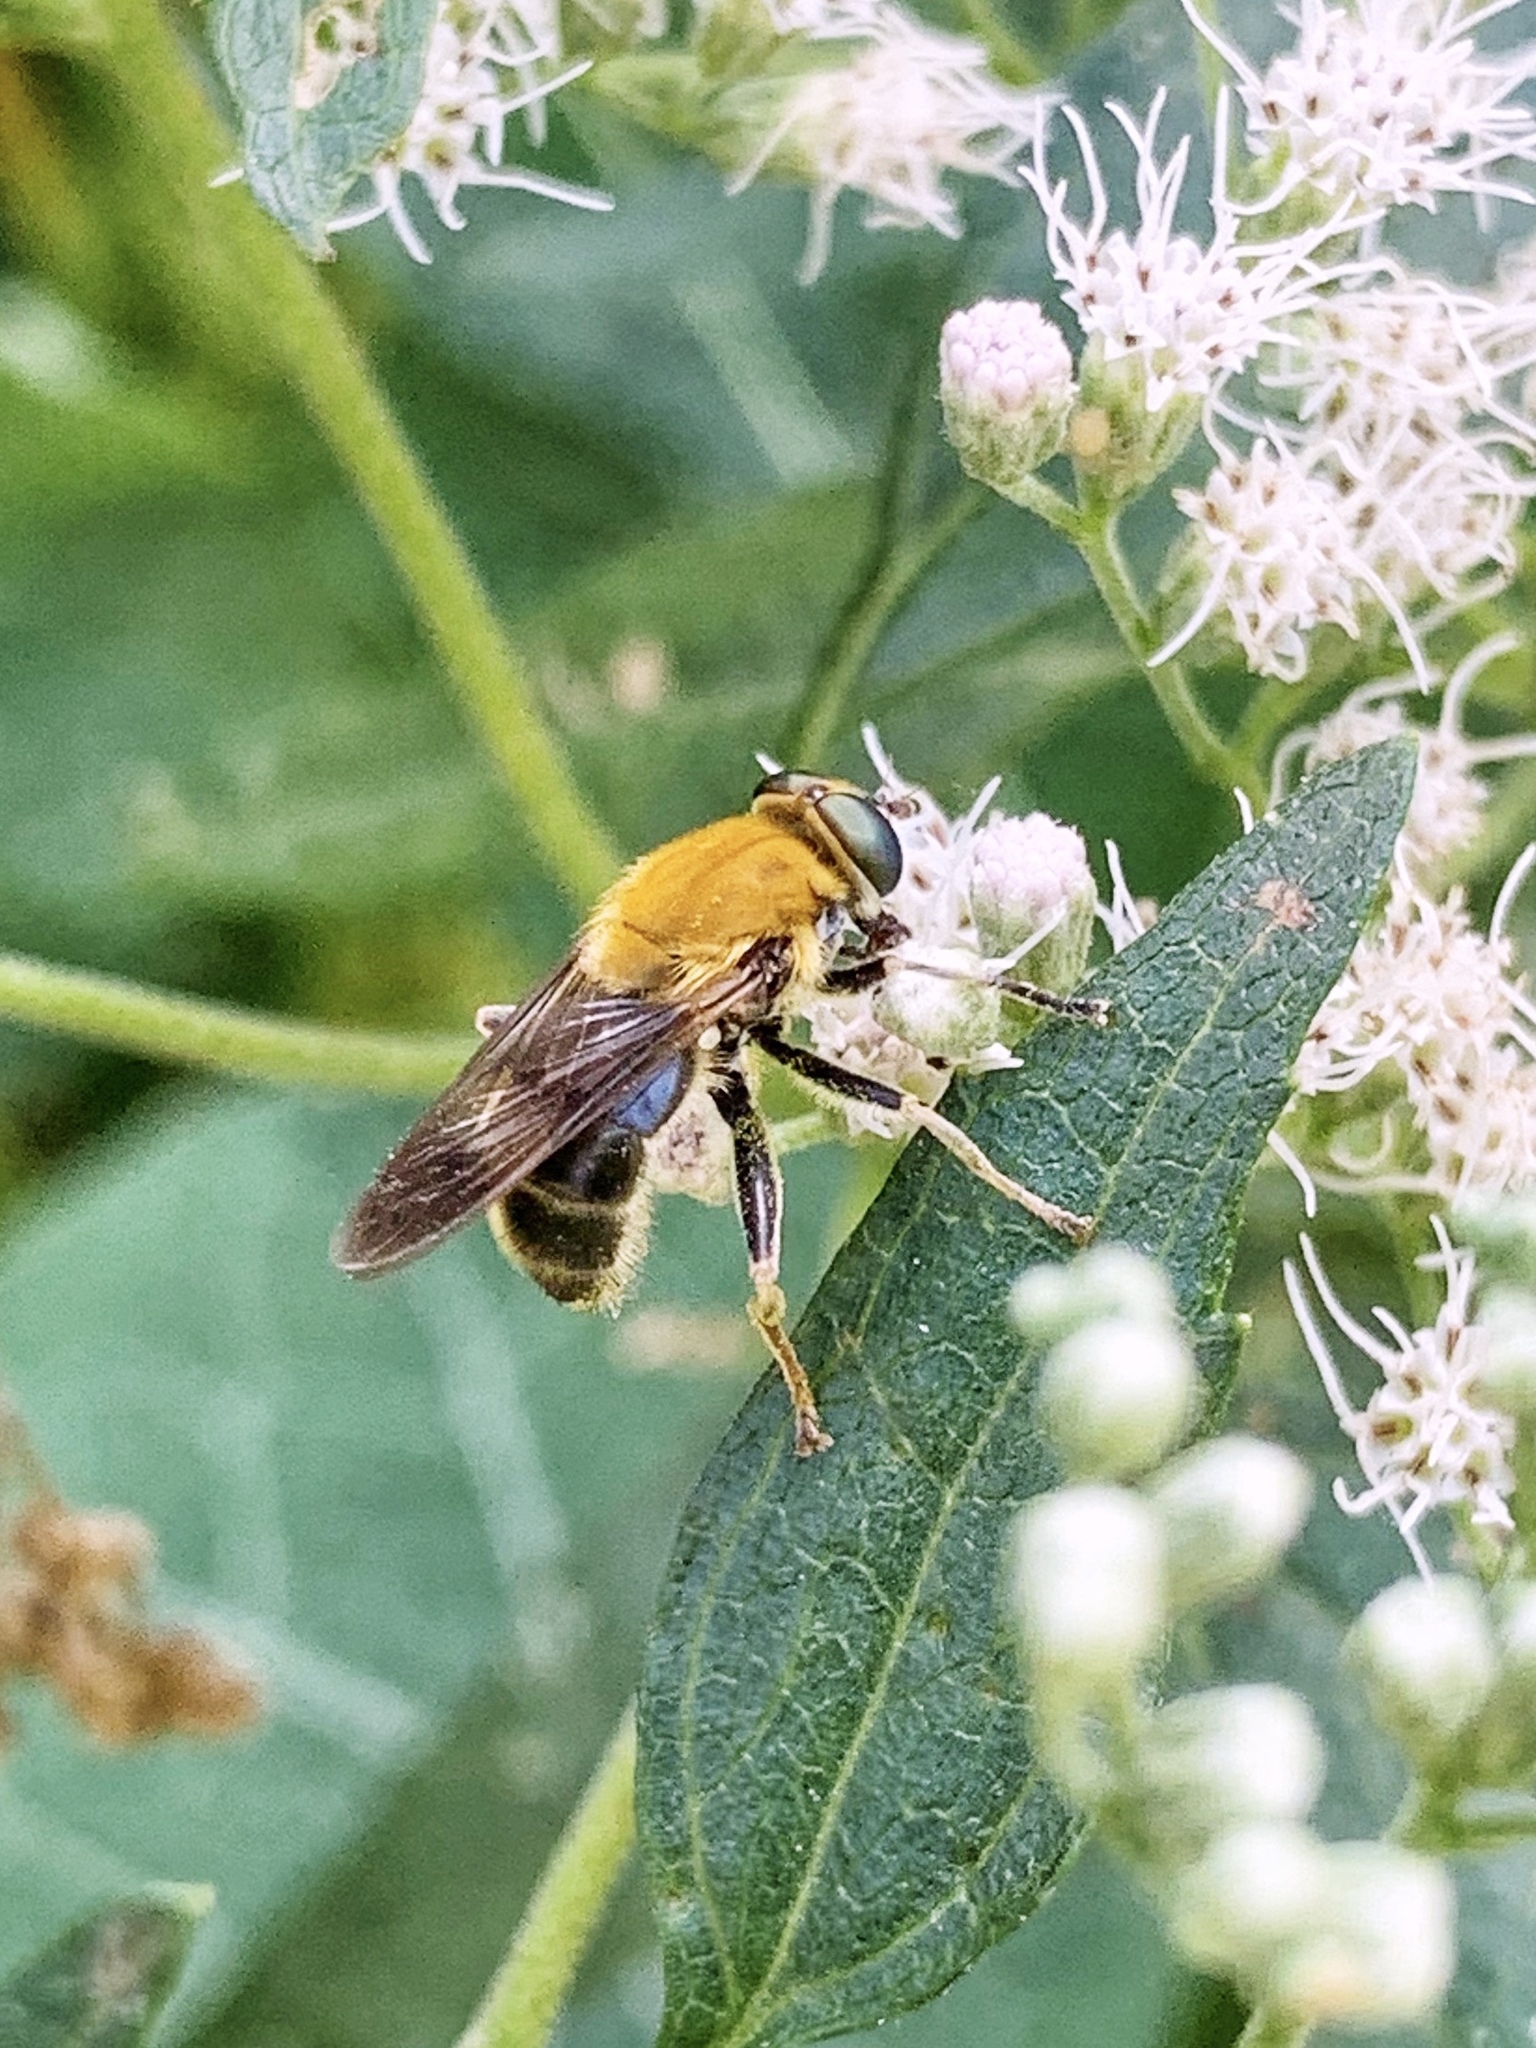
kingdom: Animalia
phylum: Arthropoda
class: Insecta
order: Diptera
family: Syrphidae
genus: Pterallastes
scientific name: Pterallastes thoracicus
